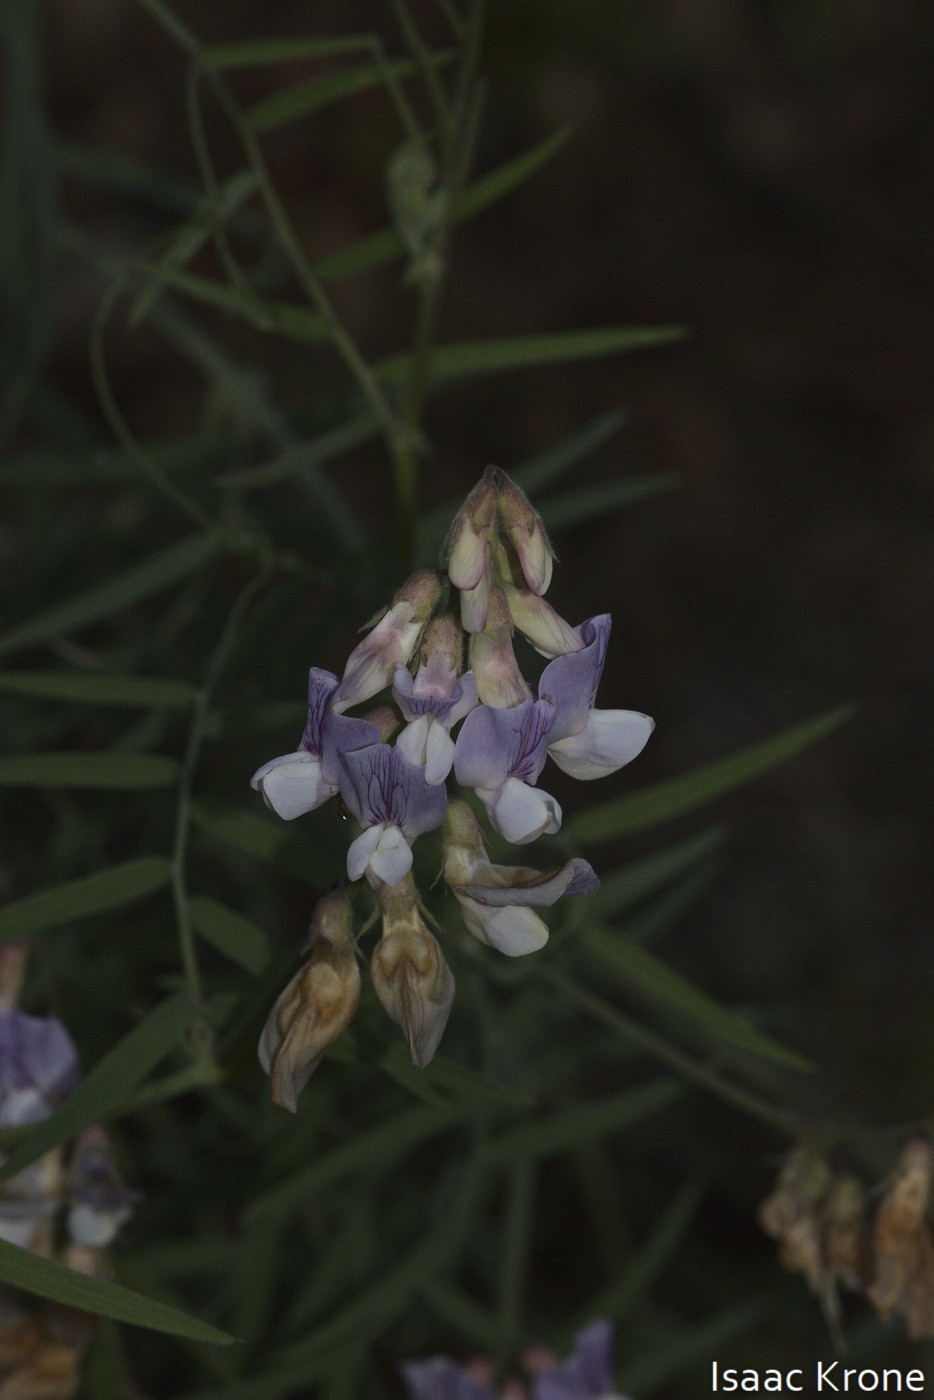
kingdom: Plantae
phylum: Tracheophyta
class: Magnoliopsida
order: Fabales
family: Fabaceae
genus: Lathyrus
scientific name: Lathyrus vestitus
